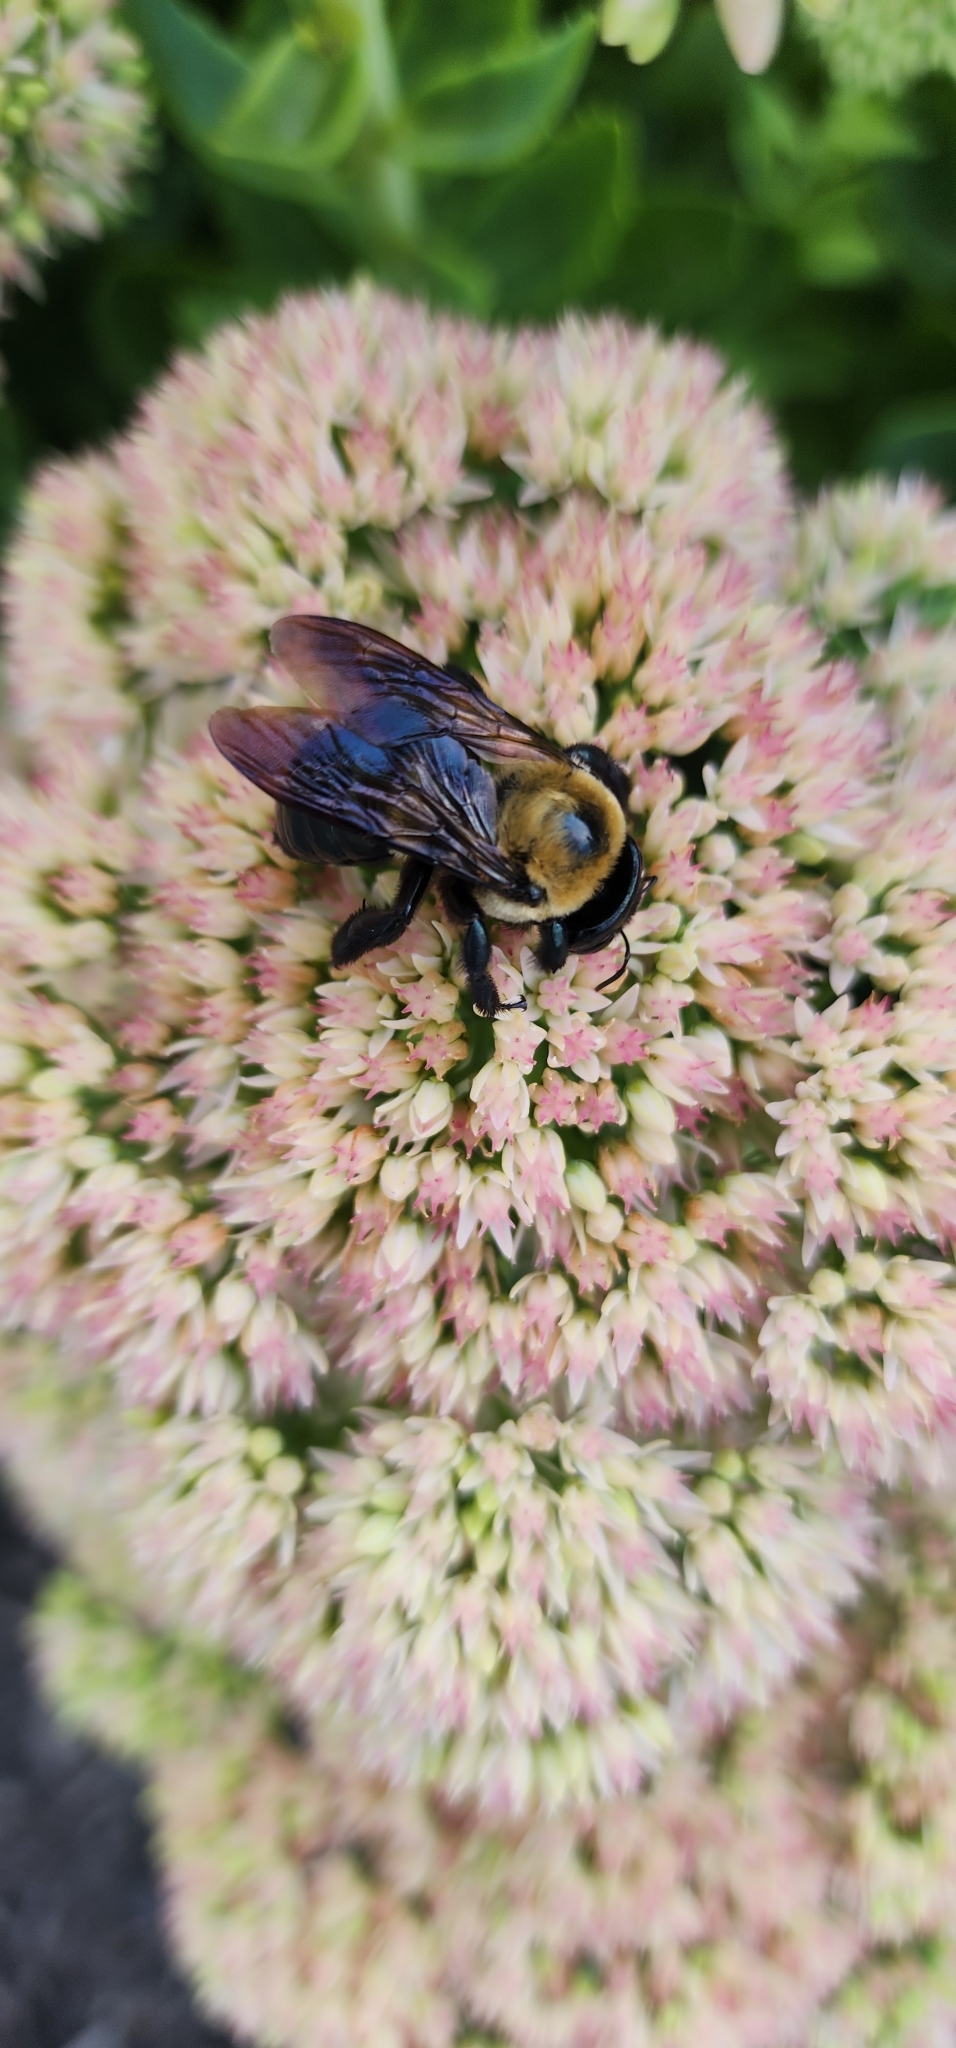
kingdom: Animalia
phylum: Arthropoda
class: Insecta
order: Hymenoptera
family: Apidae
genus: Xylocopa
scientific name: Xylocopa virginica
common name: Carpenter bee
